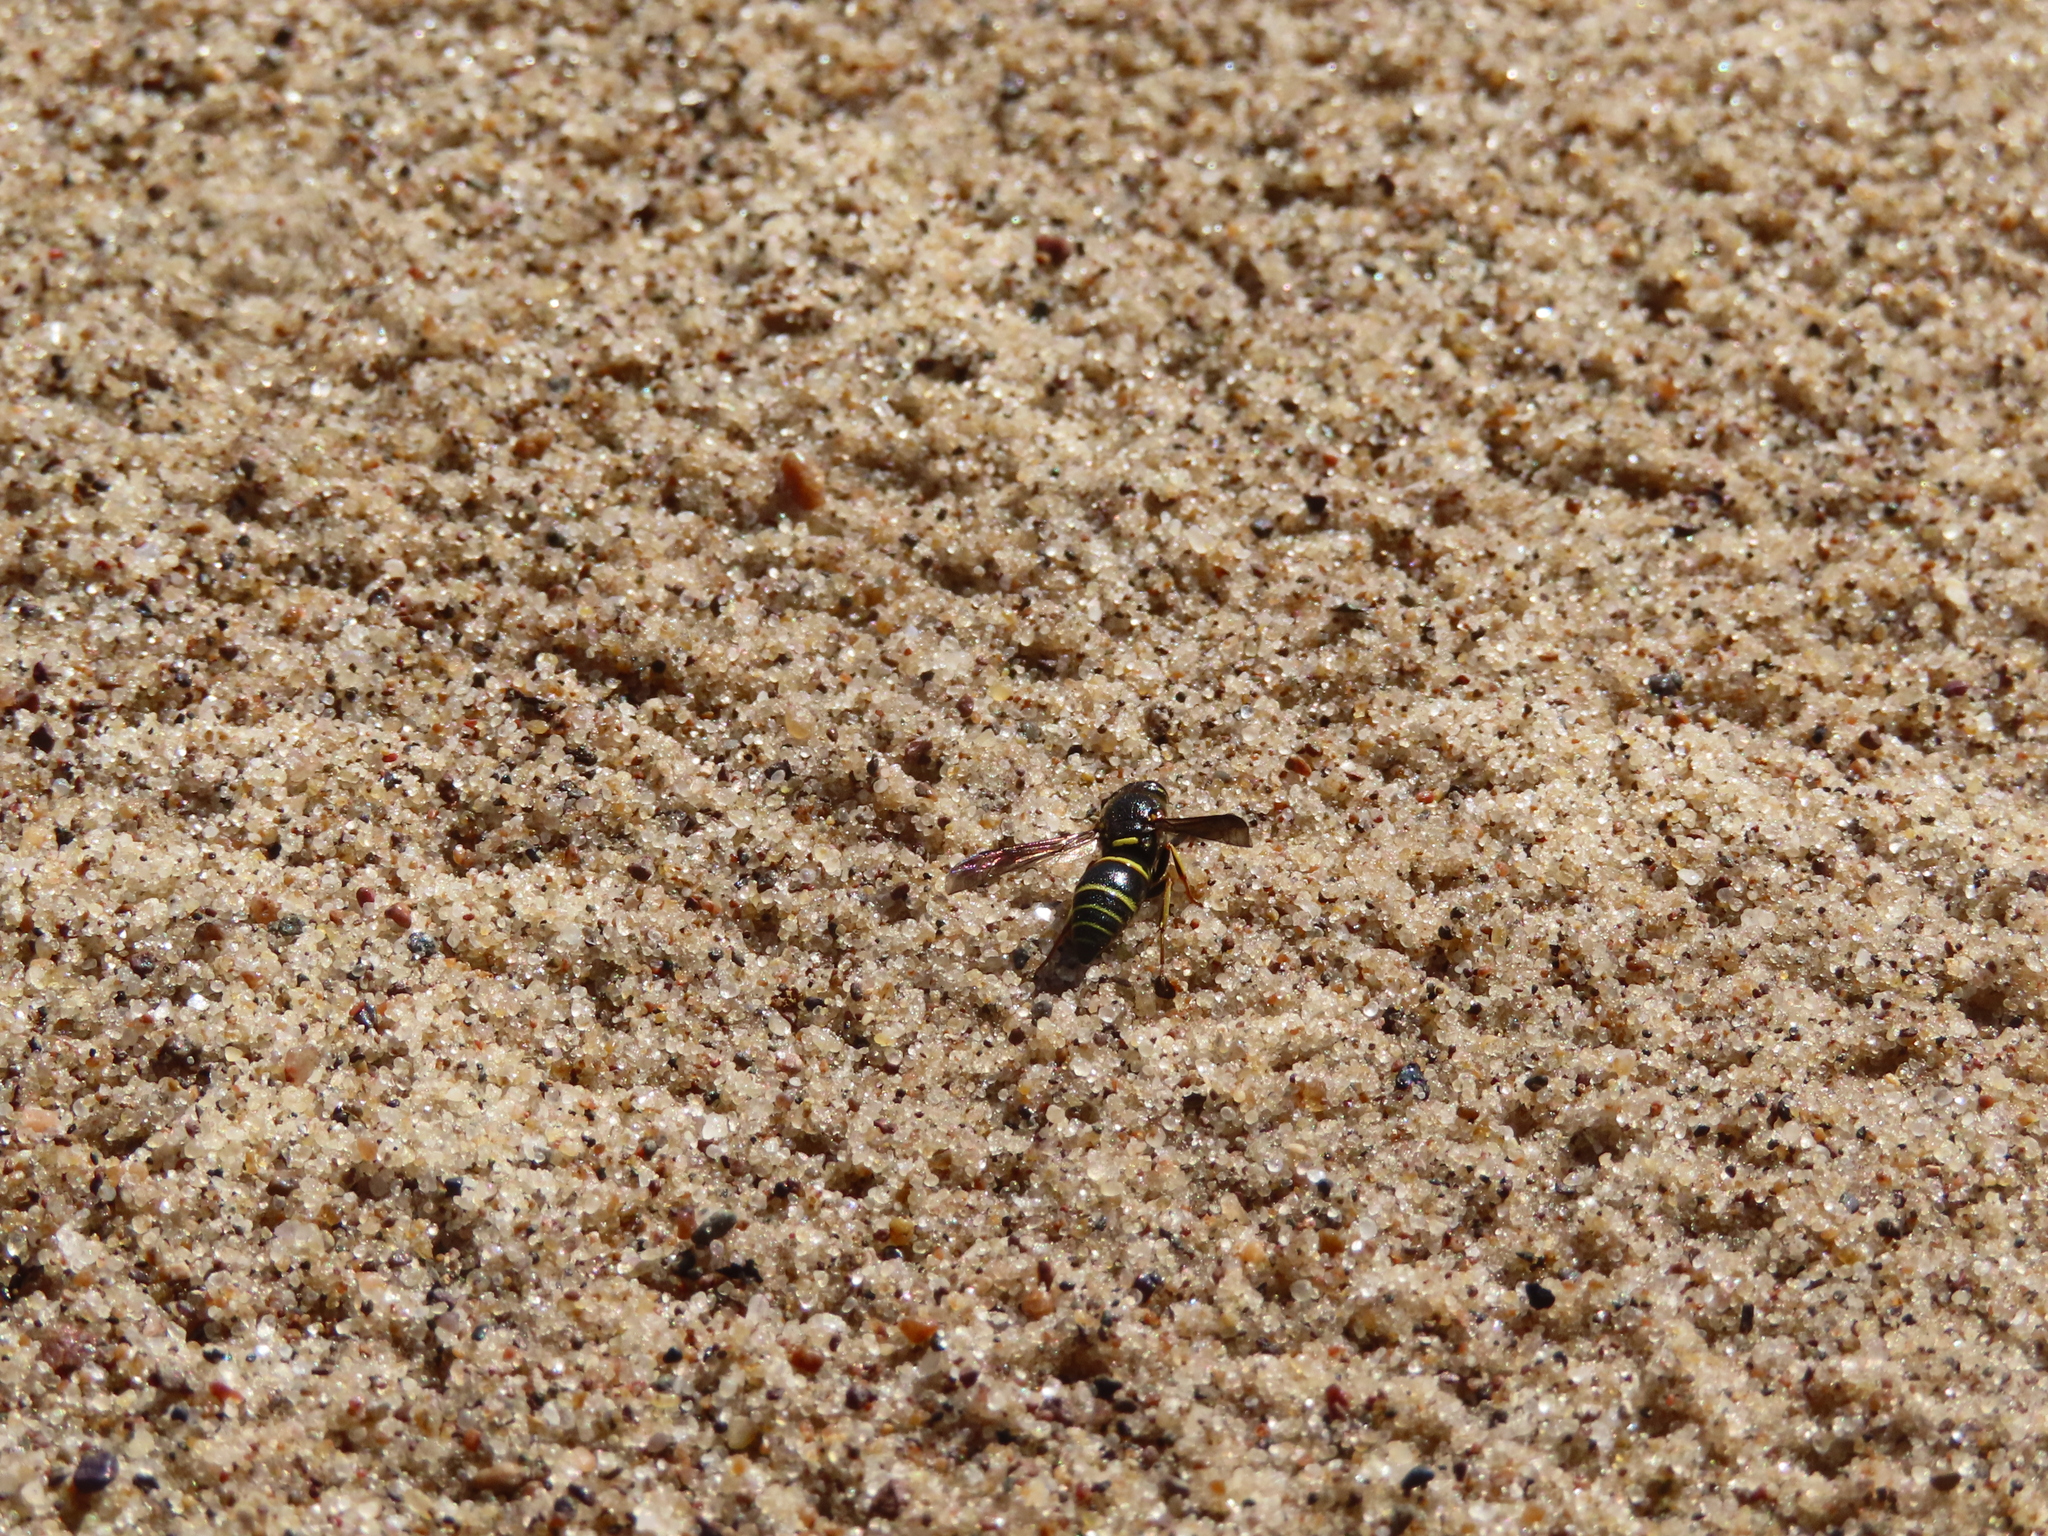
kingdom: Animalia
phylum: Arthropoda
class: Insecta
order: Hymenoptera
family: Eumenidae
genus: Euodynerus
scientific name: Euodynerus foraminatus
